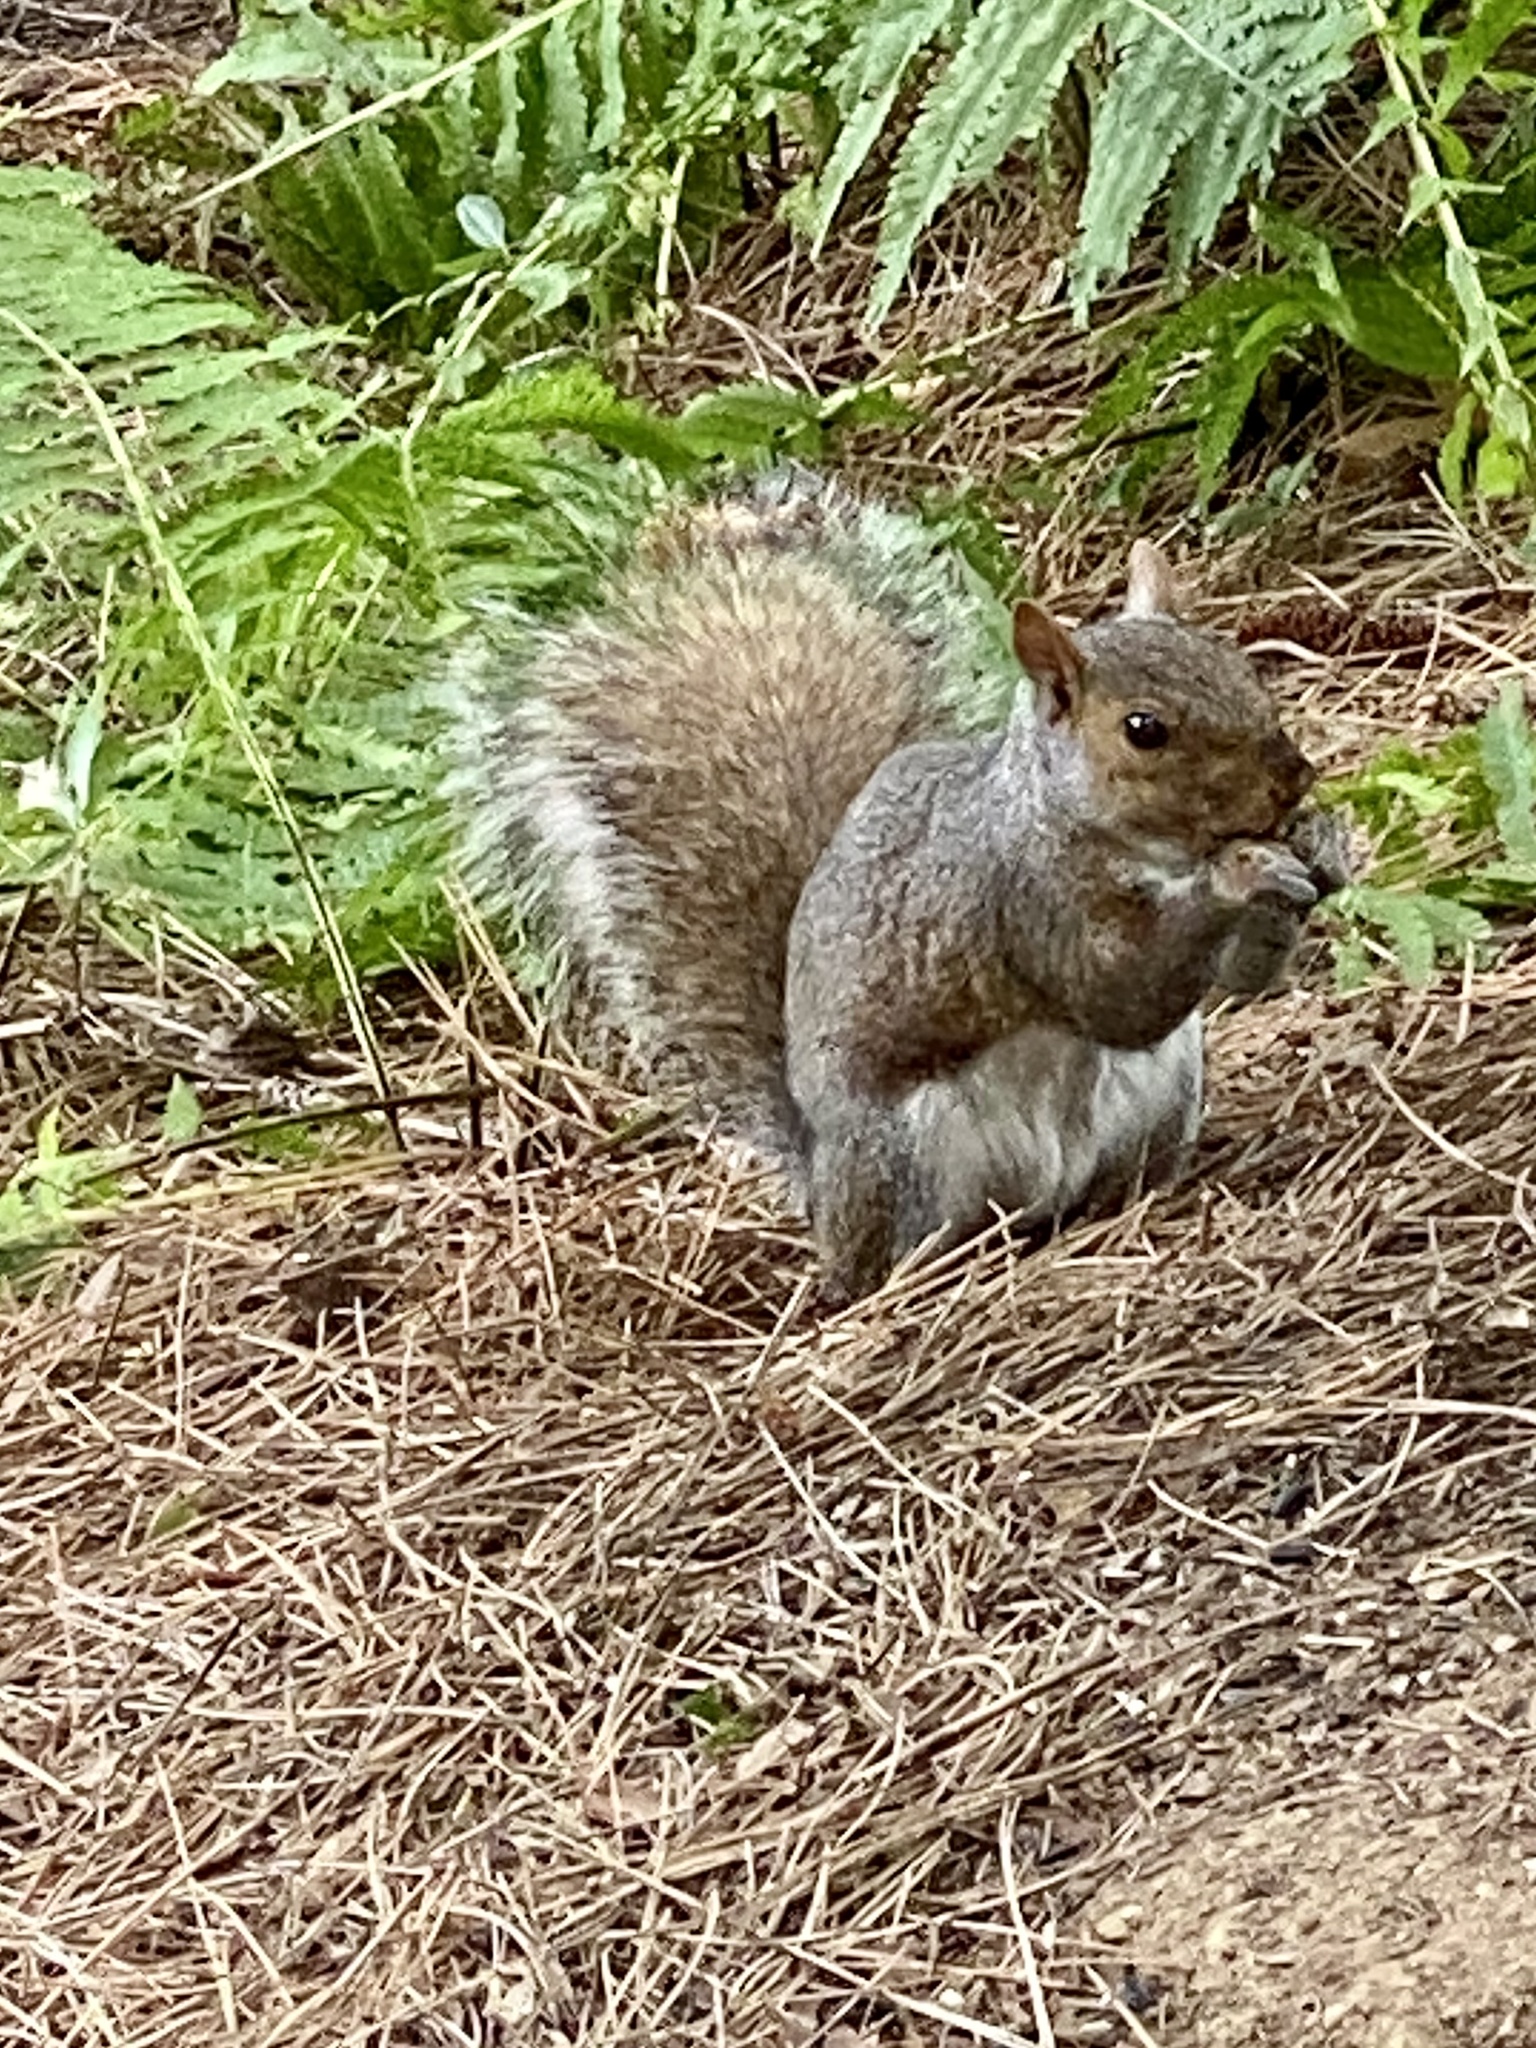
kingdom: Animalia
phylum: Chordata
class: Mammalia
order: Rodentia
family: Sciuridae
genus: Sciurus
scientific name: Sciurus carolinensis
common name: Eastern gray squirrel
